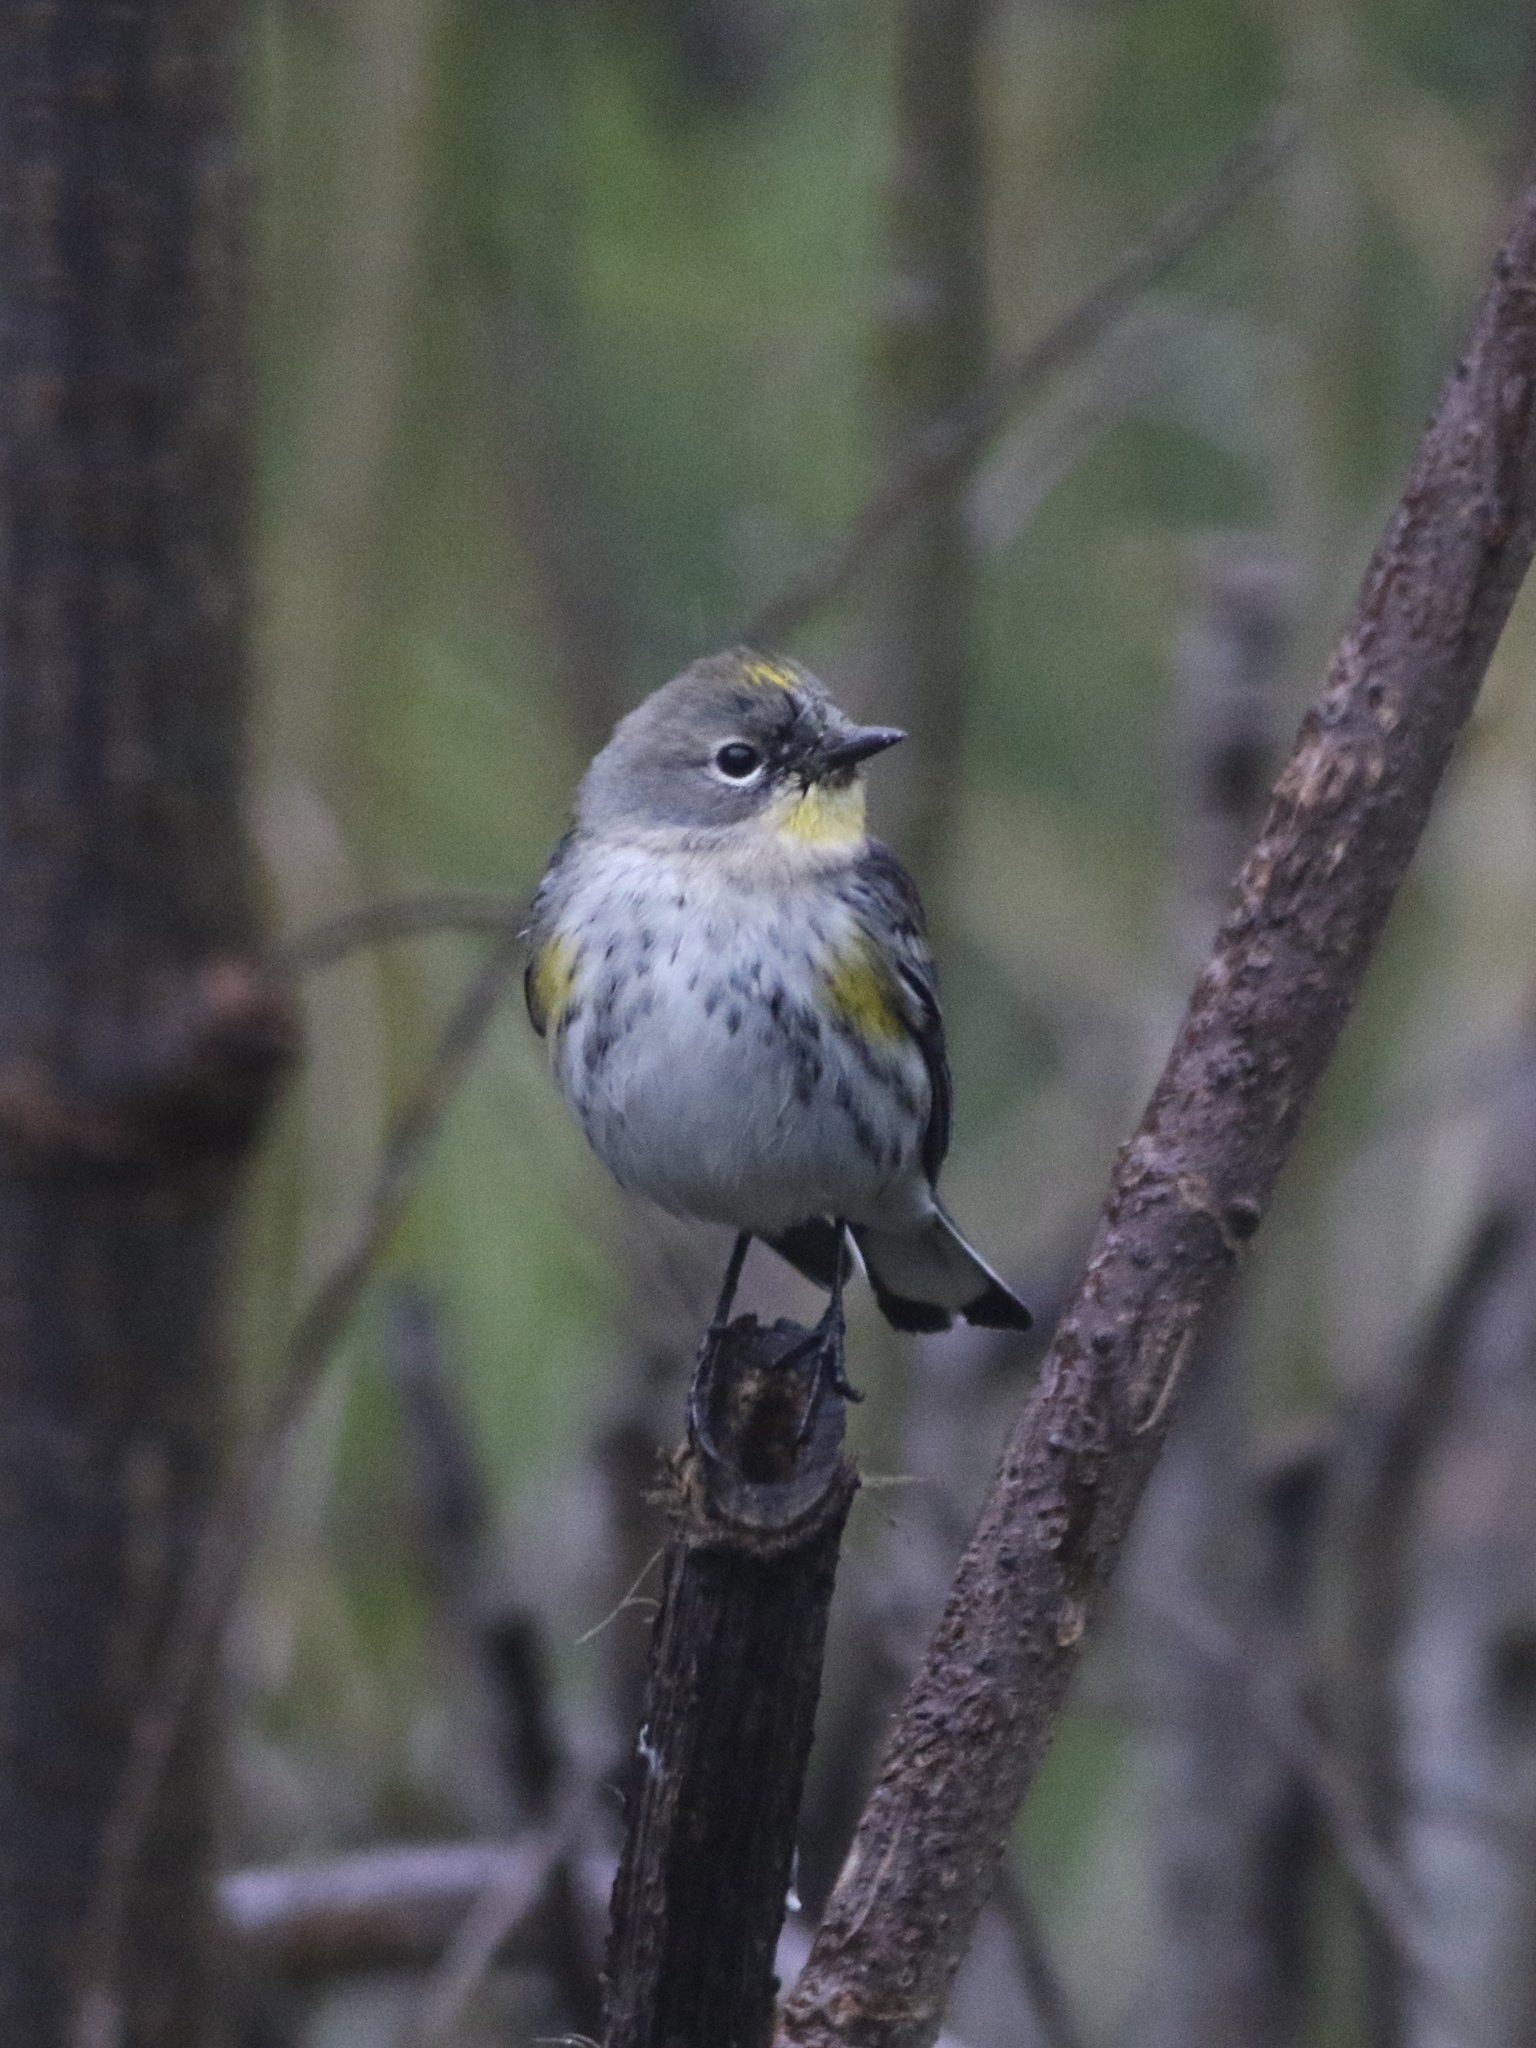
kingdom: Animalia
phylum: Chordata
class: Aves
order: Passeriformes
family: Parulidae
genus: Setophaga
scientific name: Setophaga coronata
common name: Myrtle warbler
